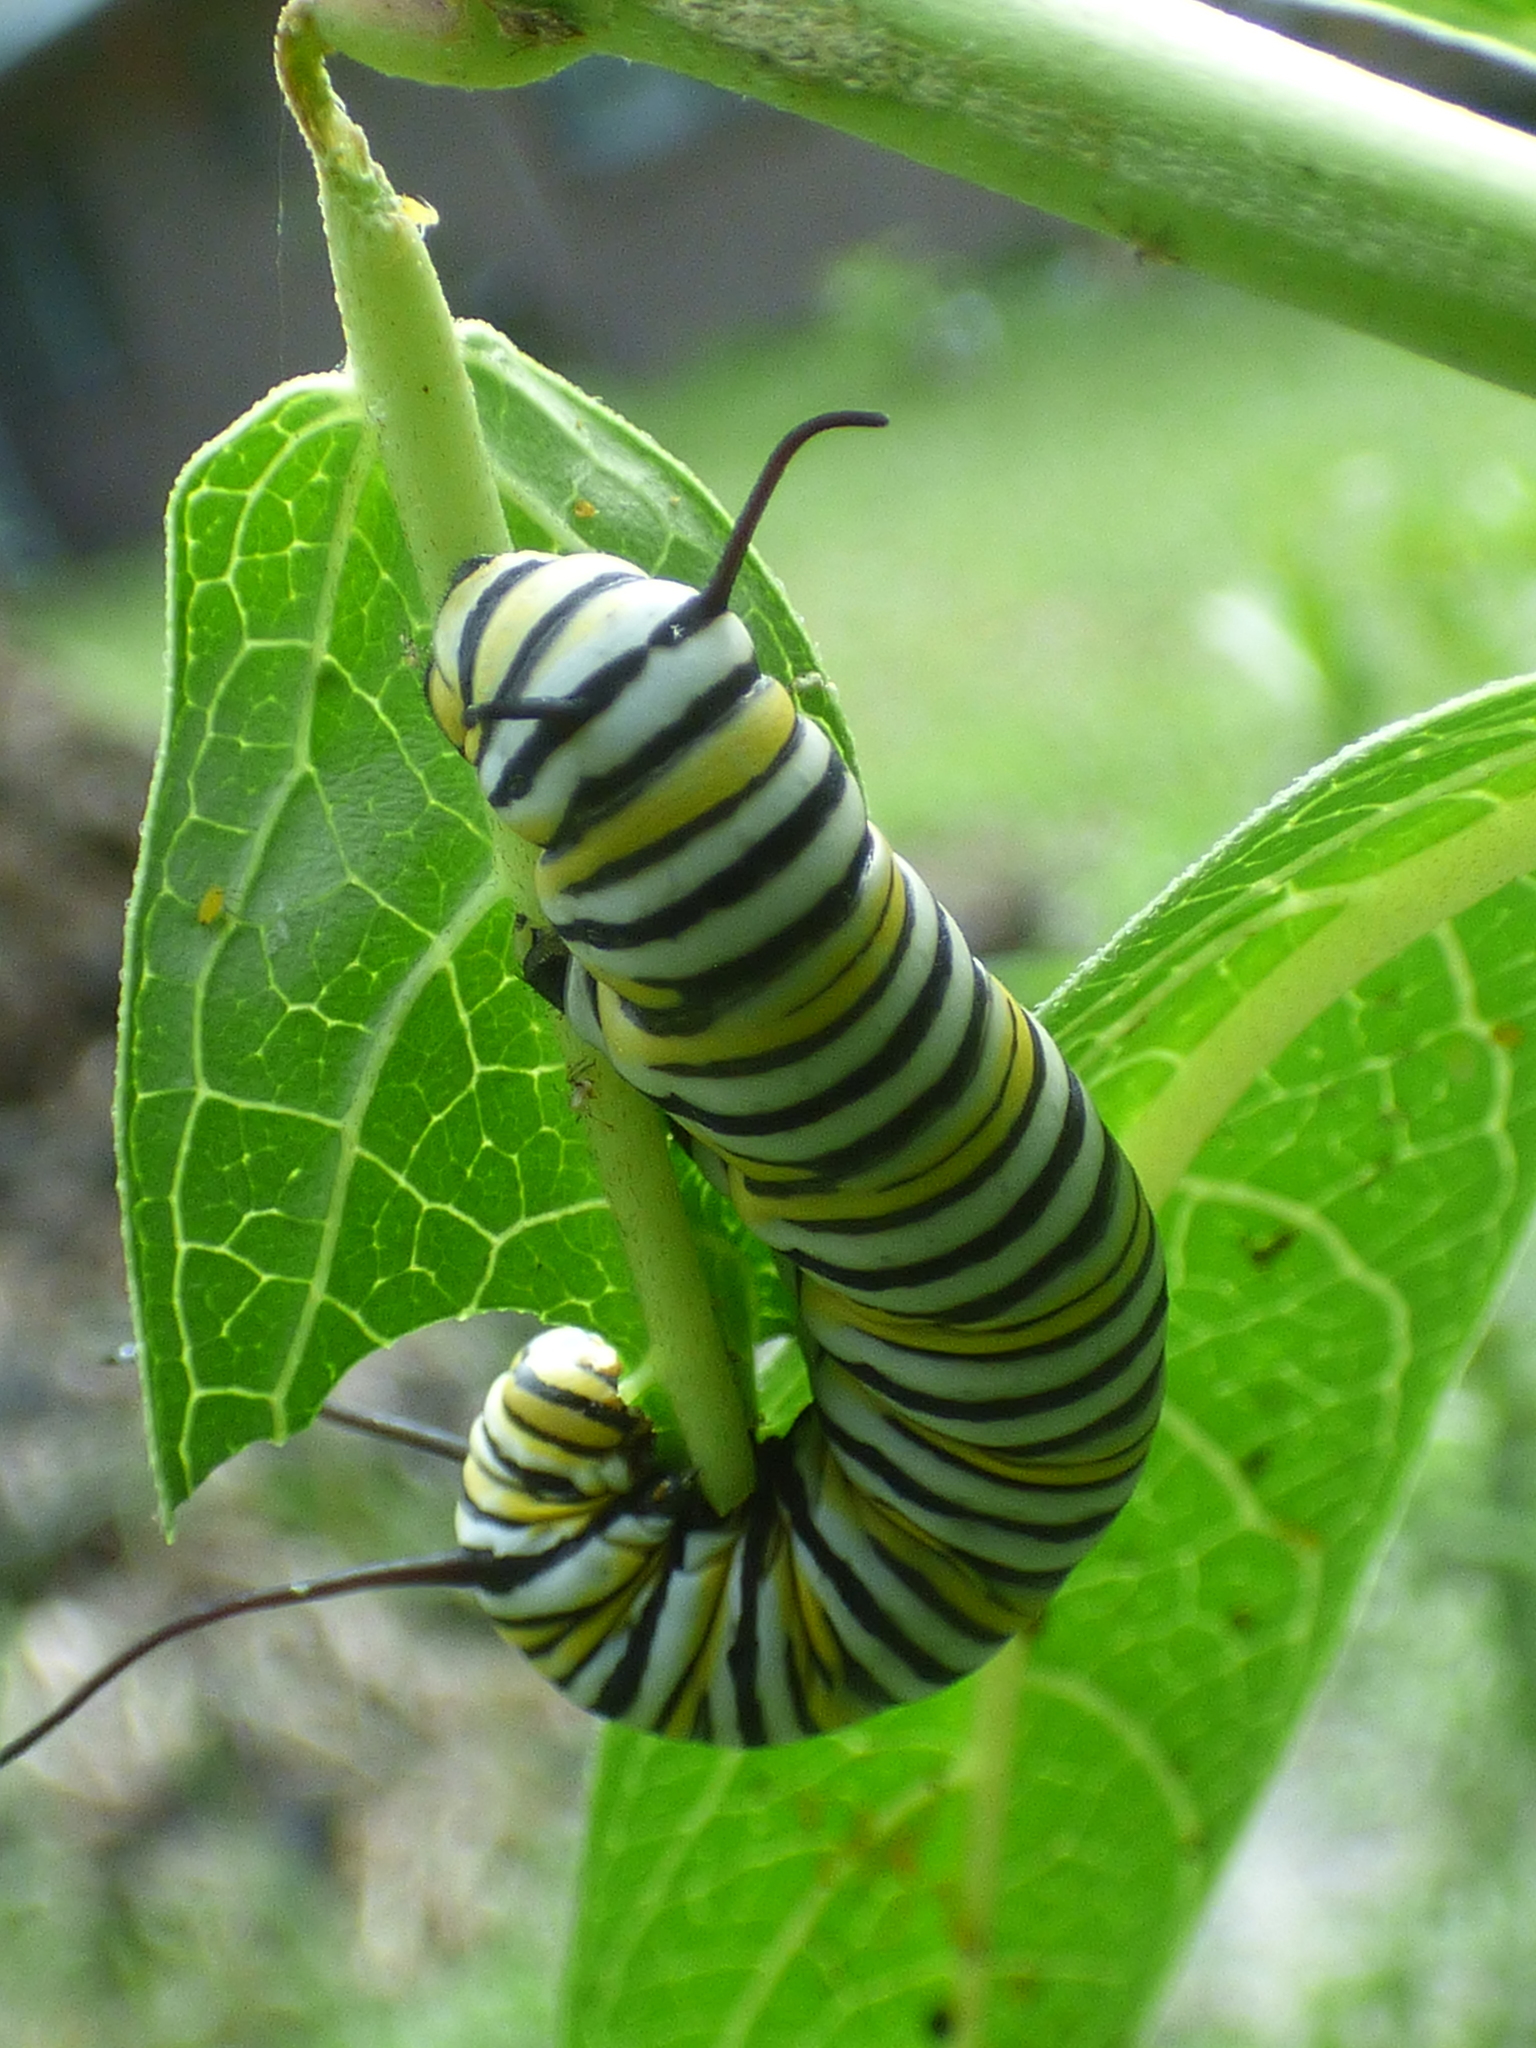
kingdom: Animalia
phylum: Arthropoda
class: Insecta
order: Lepidoptera
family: Nymphalidae
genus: Danaus
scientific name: Danaus plexippus
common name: Monarch
